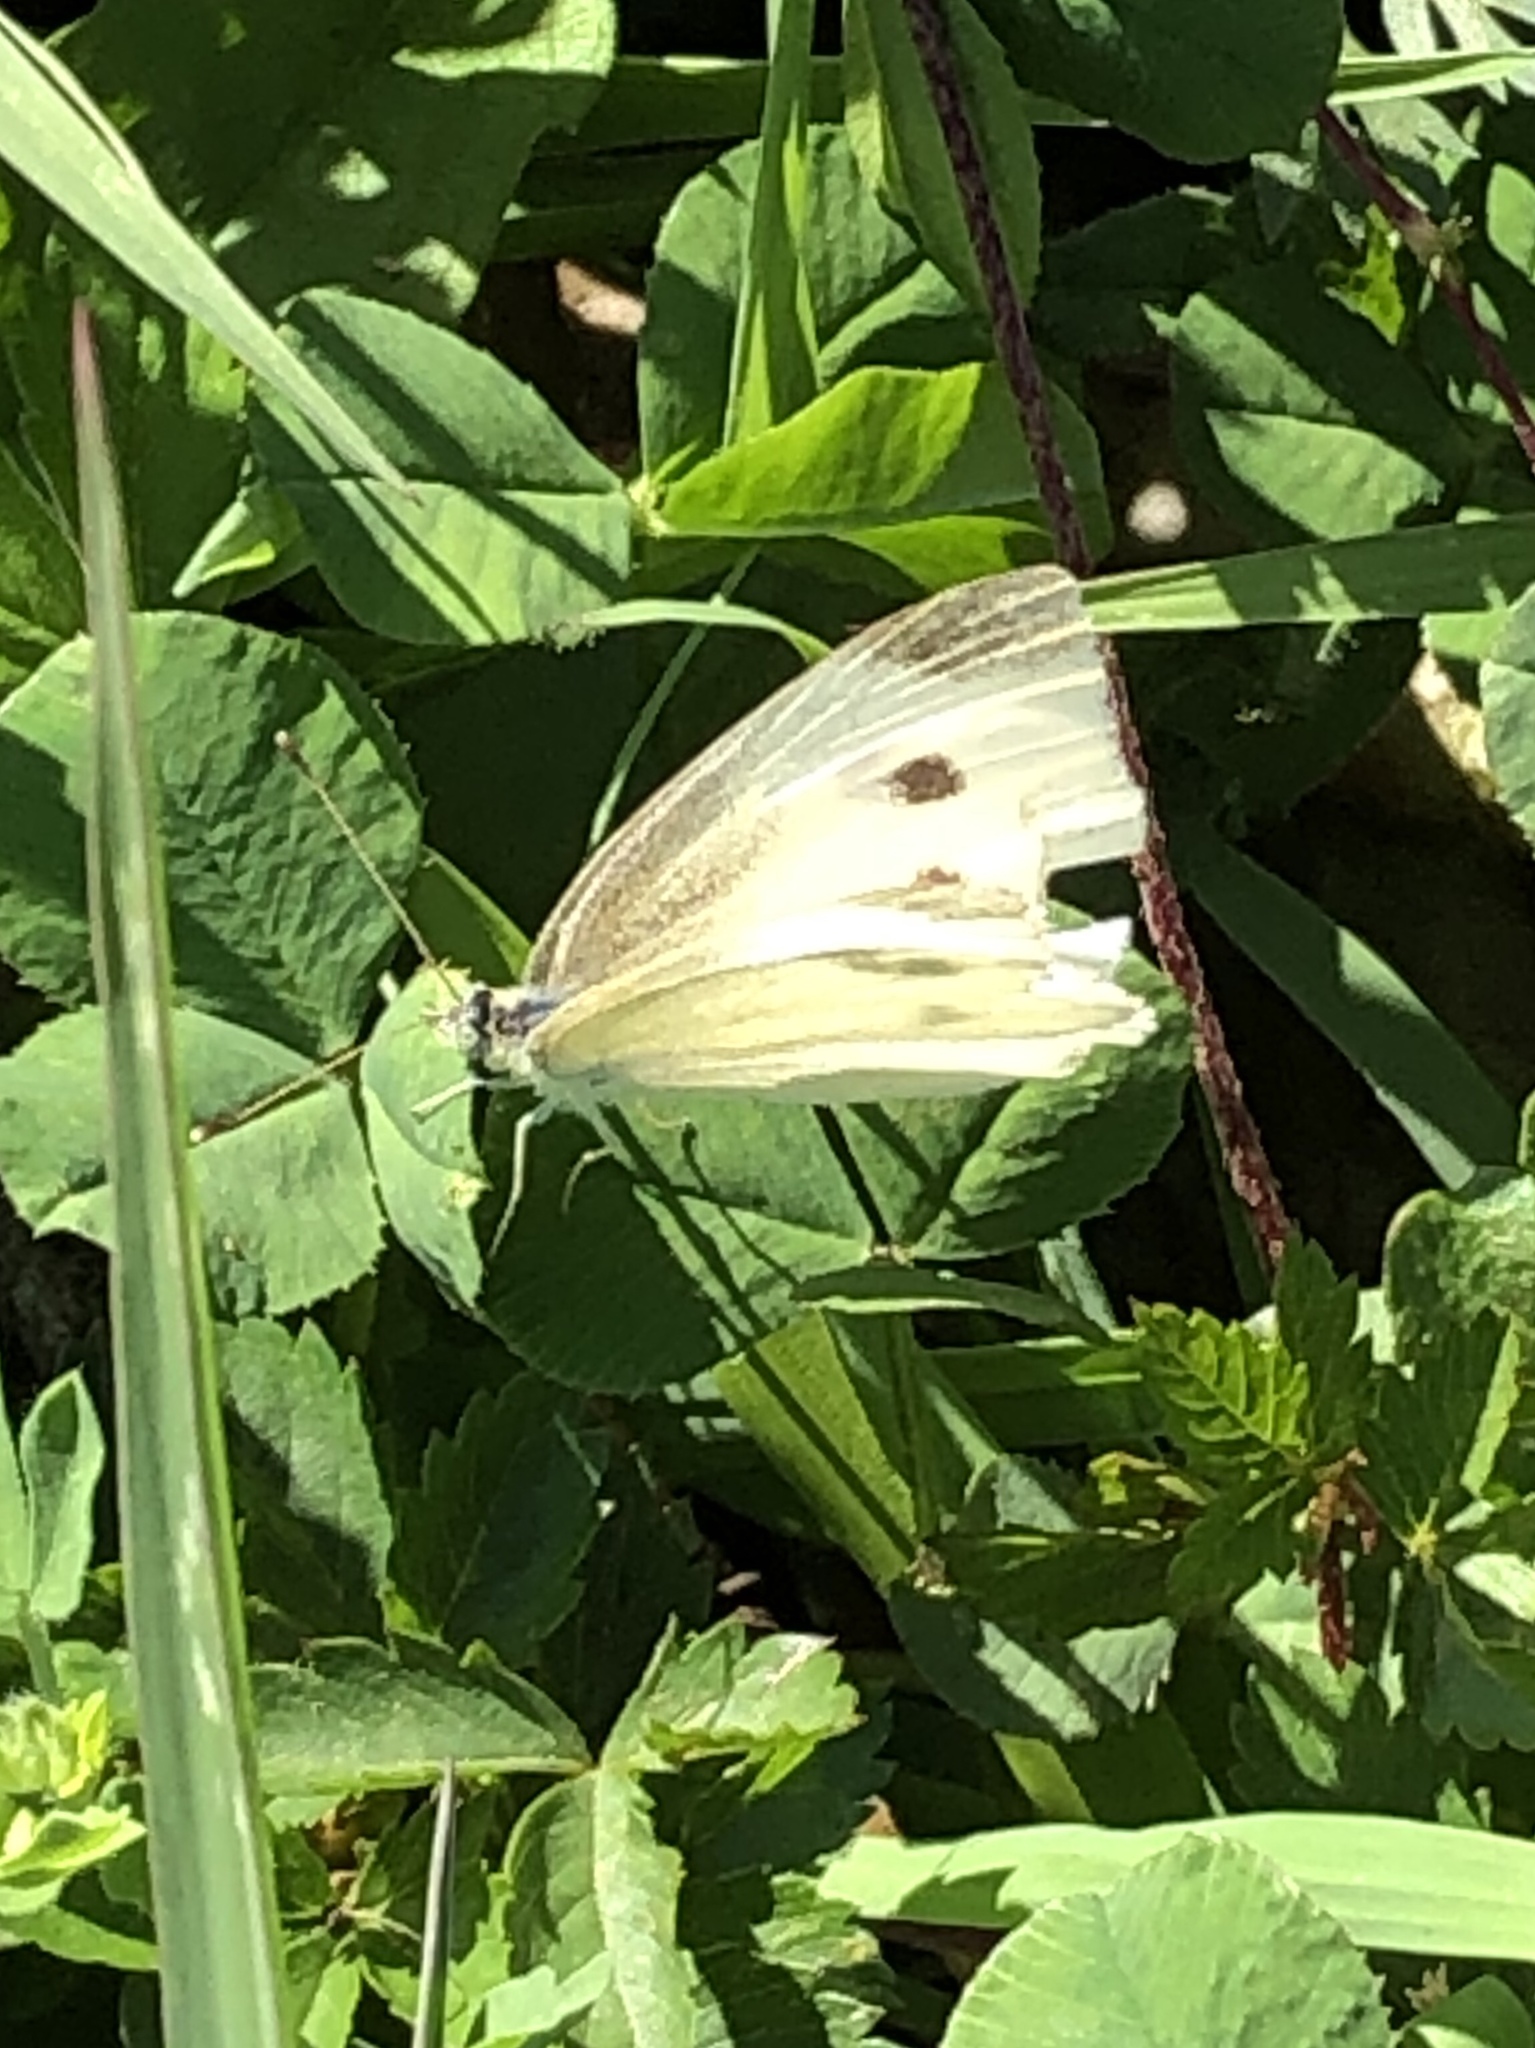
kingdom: Animalia
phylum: Arthropoda
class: Insecta
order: Lepidoptera
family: Pieridae
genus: Pieris
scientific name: Pieris rapae
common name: Small white
